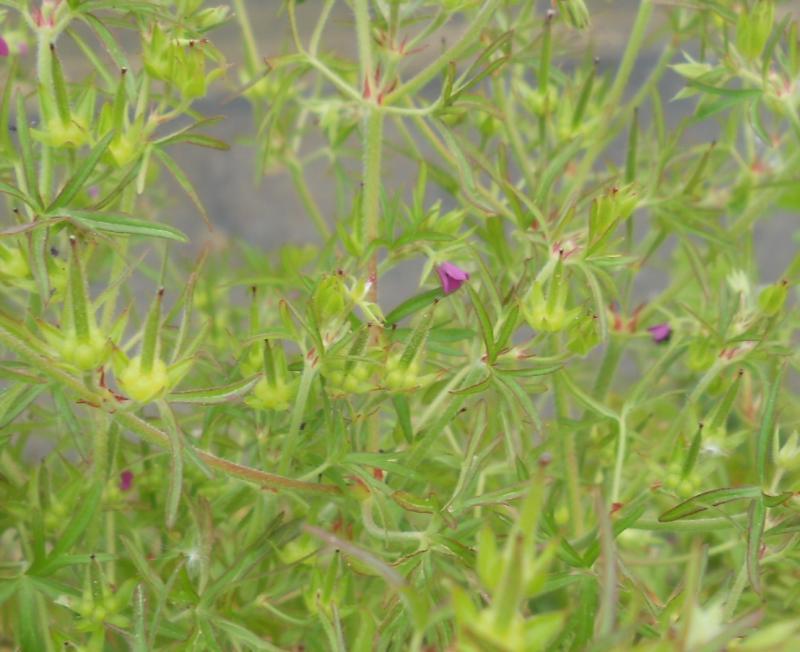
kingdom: Plantae
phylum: Tracheophyta
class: Magnoliopsida
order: Geraniales
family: Geraniaceae
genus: Geranium
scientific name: Geranium dissectum
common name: Cut-leaved crane's-bill
